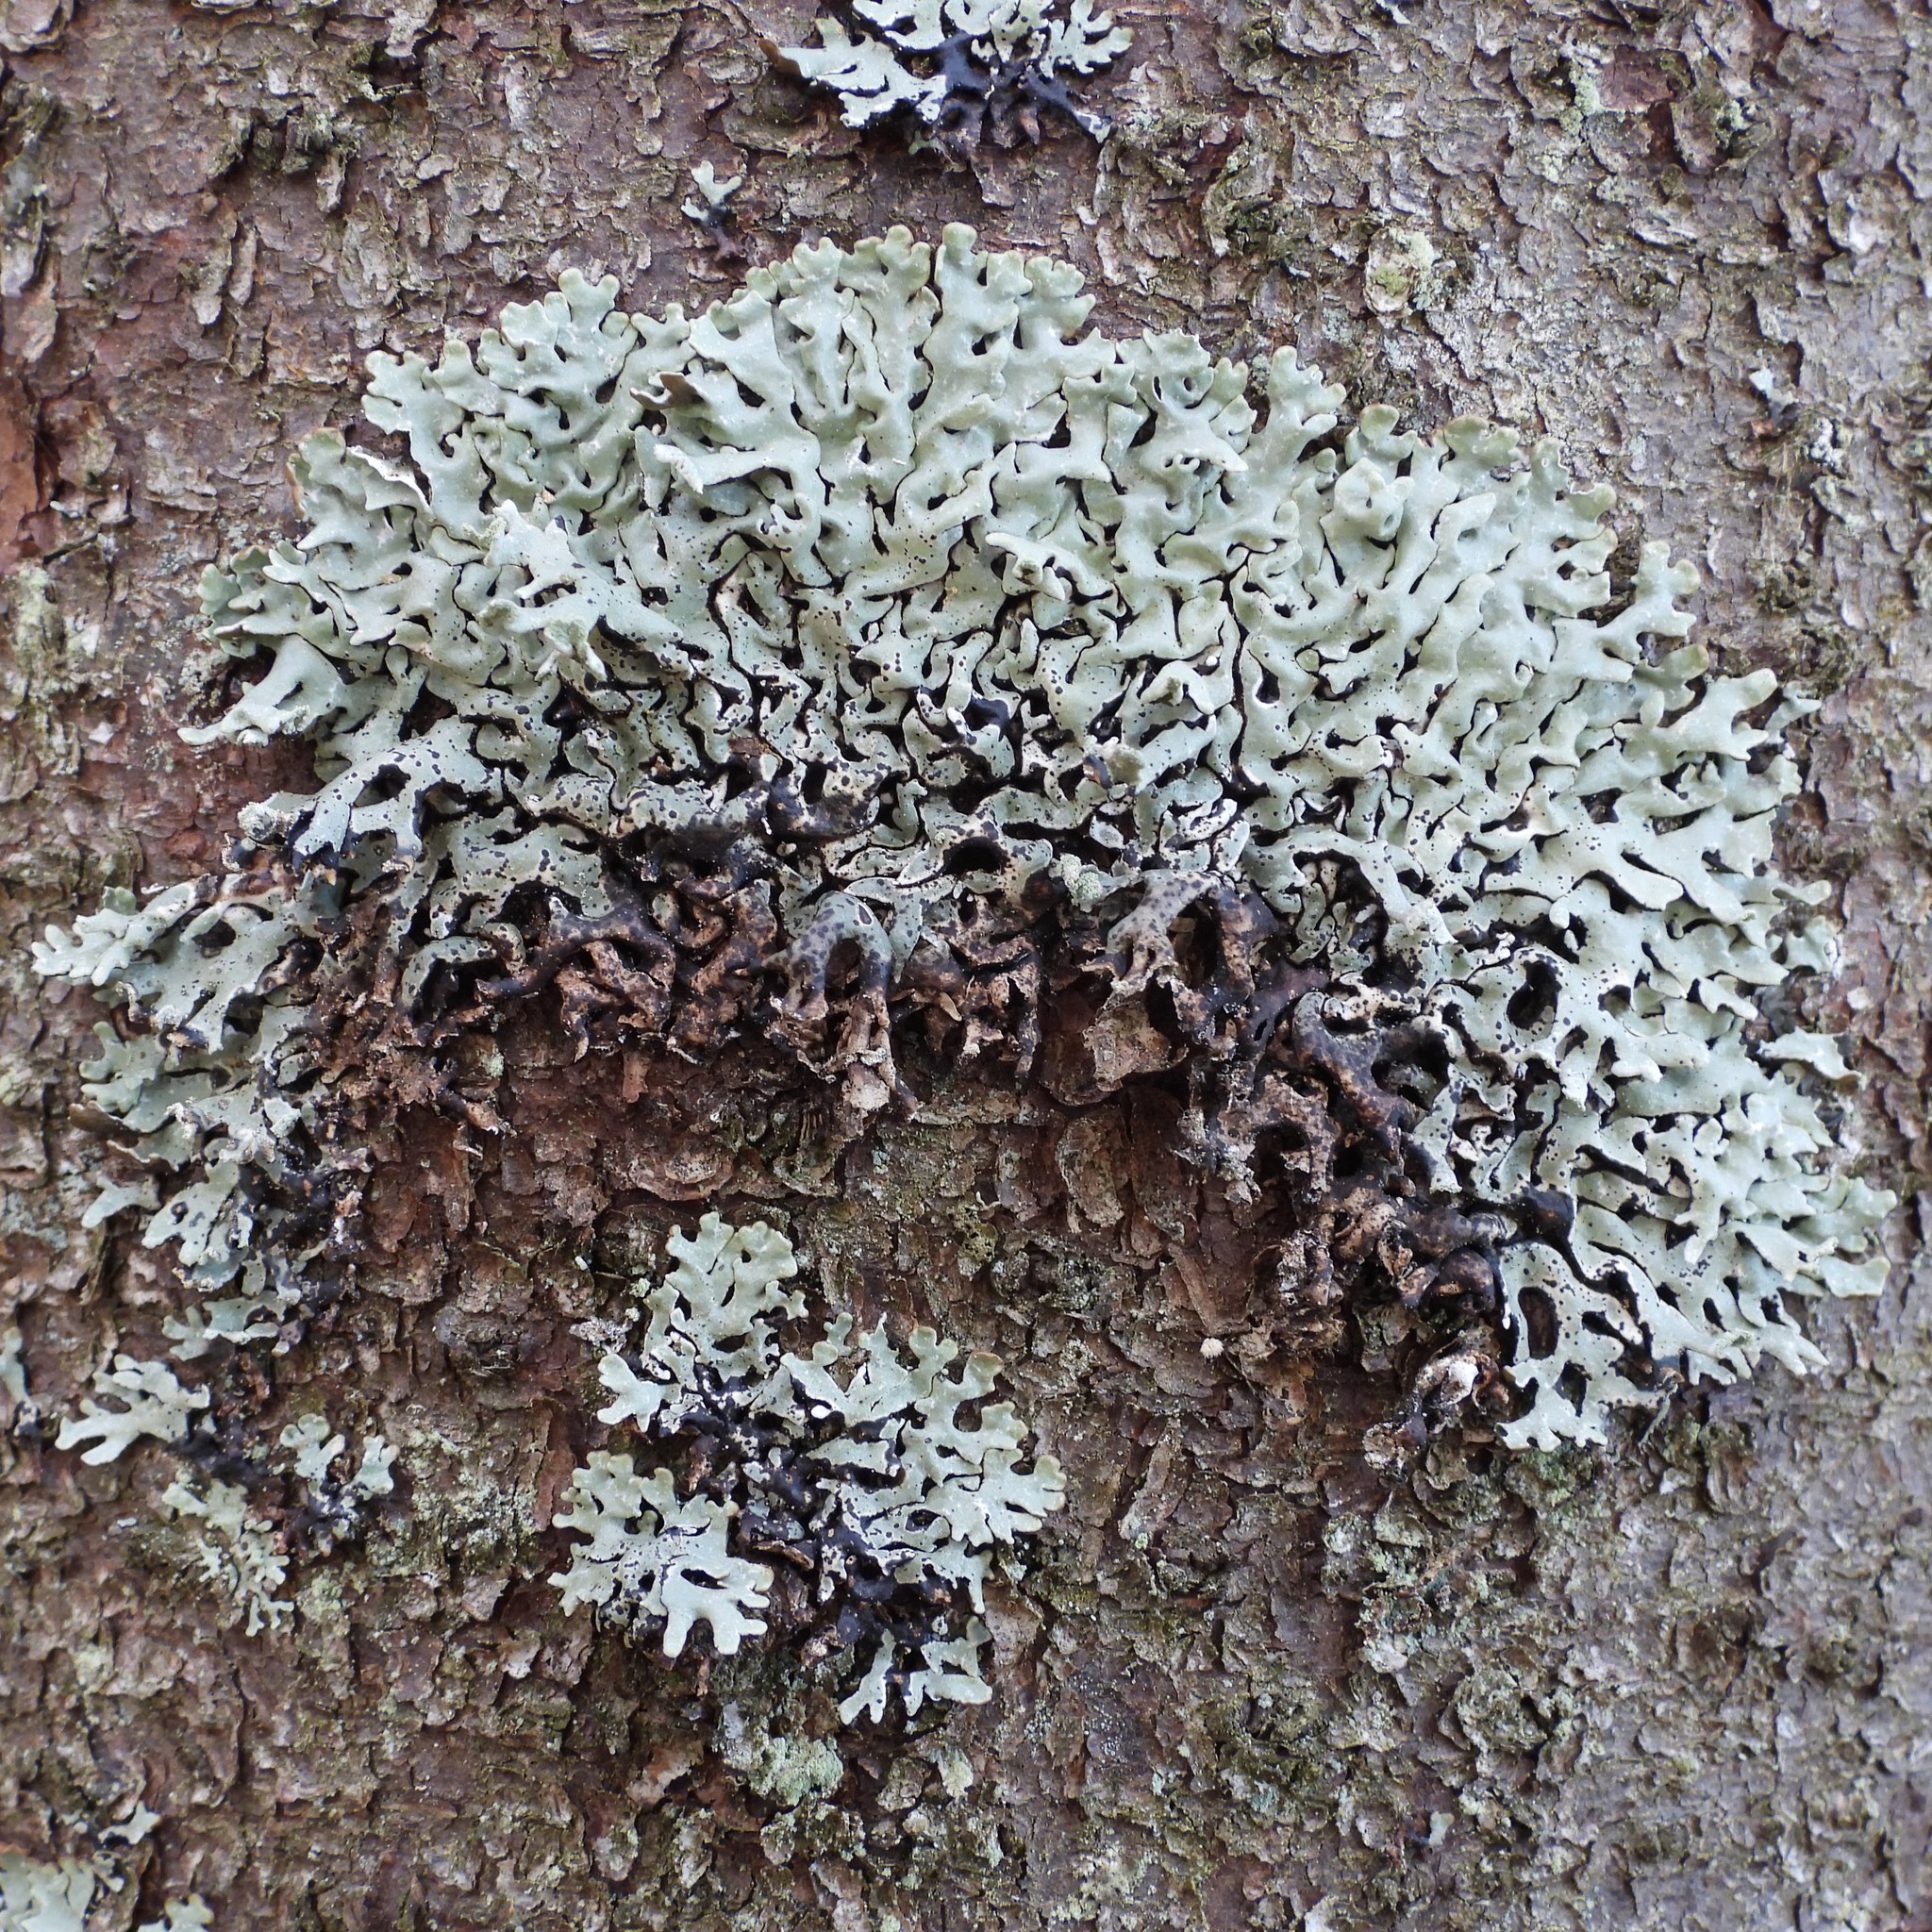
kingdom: Fungi
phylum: Ascomycota
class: Lecanoromycetes
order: Lecanorales
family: Parmeliaceae
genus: Hypogymnia
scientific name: Hypogymnia physodes
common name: Dark crottle
